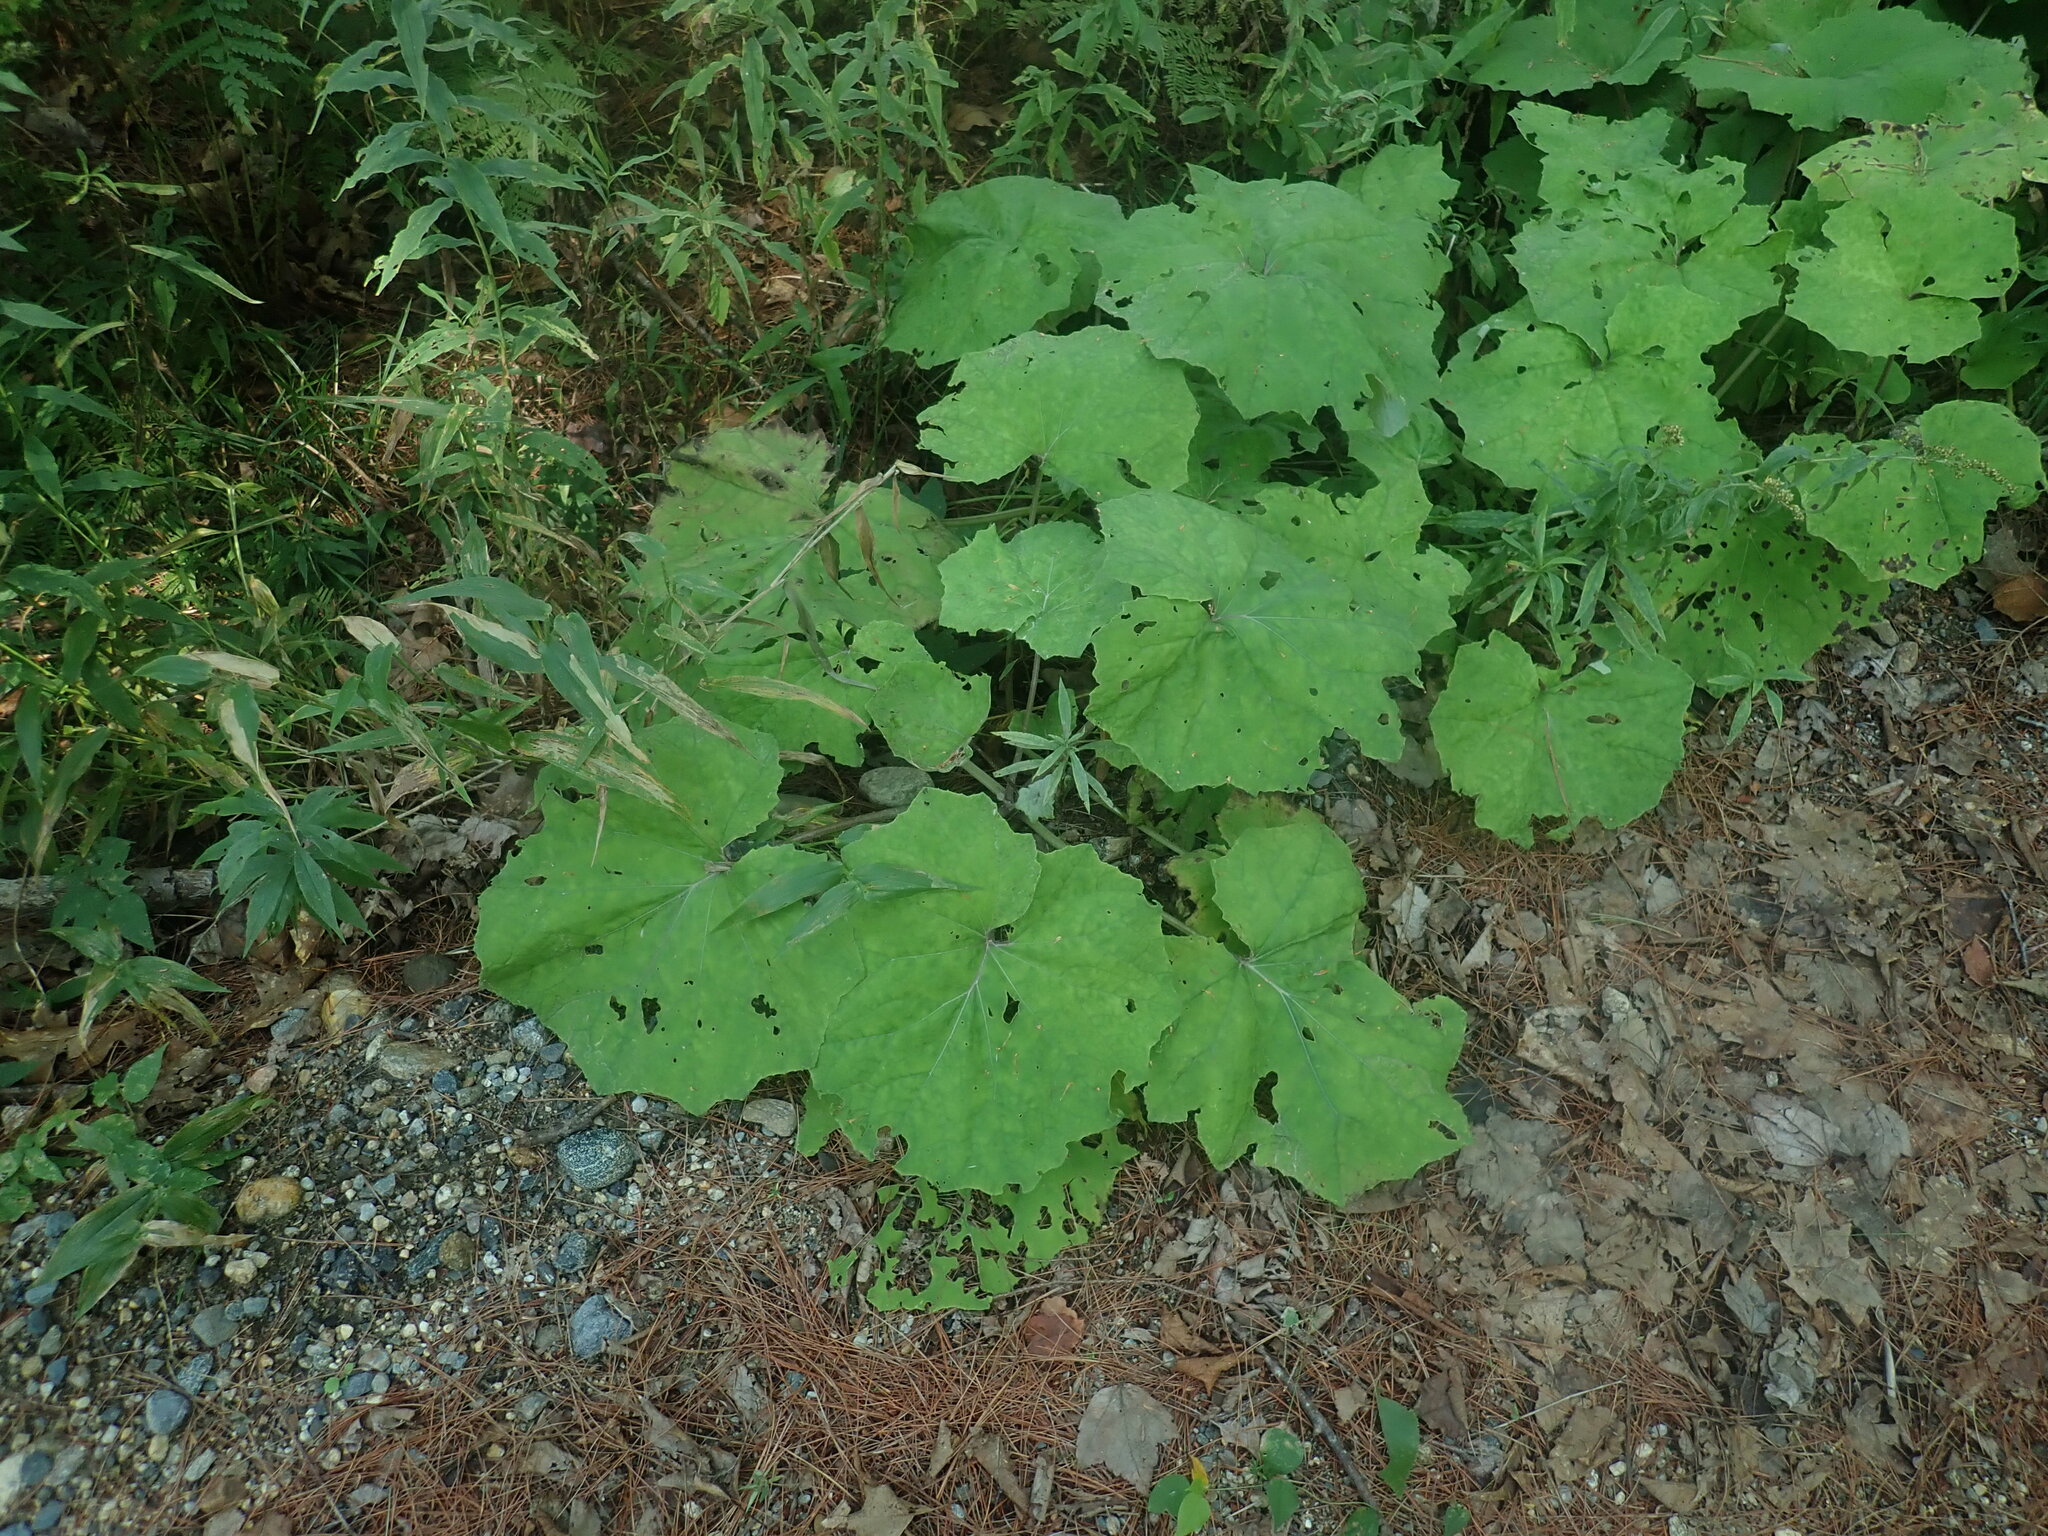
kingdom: Plantae
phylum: Tracheophyta
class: Magnoliopsida
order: Asterales
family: Asteraceae
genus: Tussilago
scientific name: Tussilago farfara
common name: Coltsfoot
